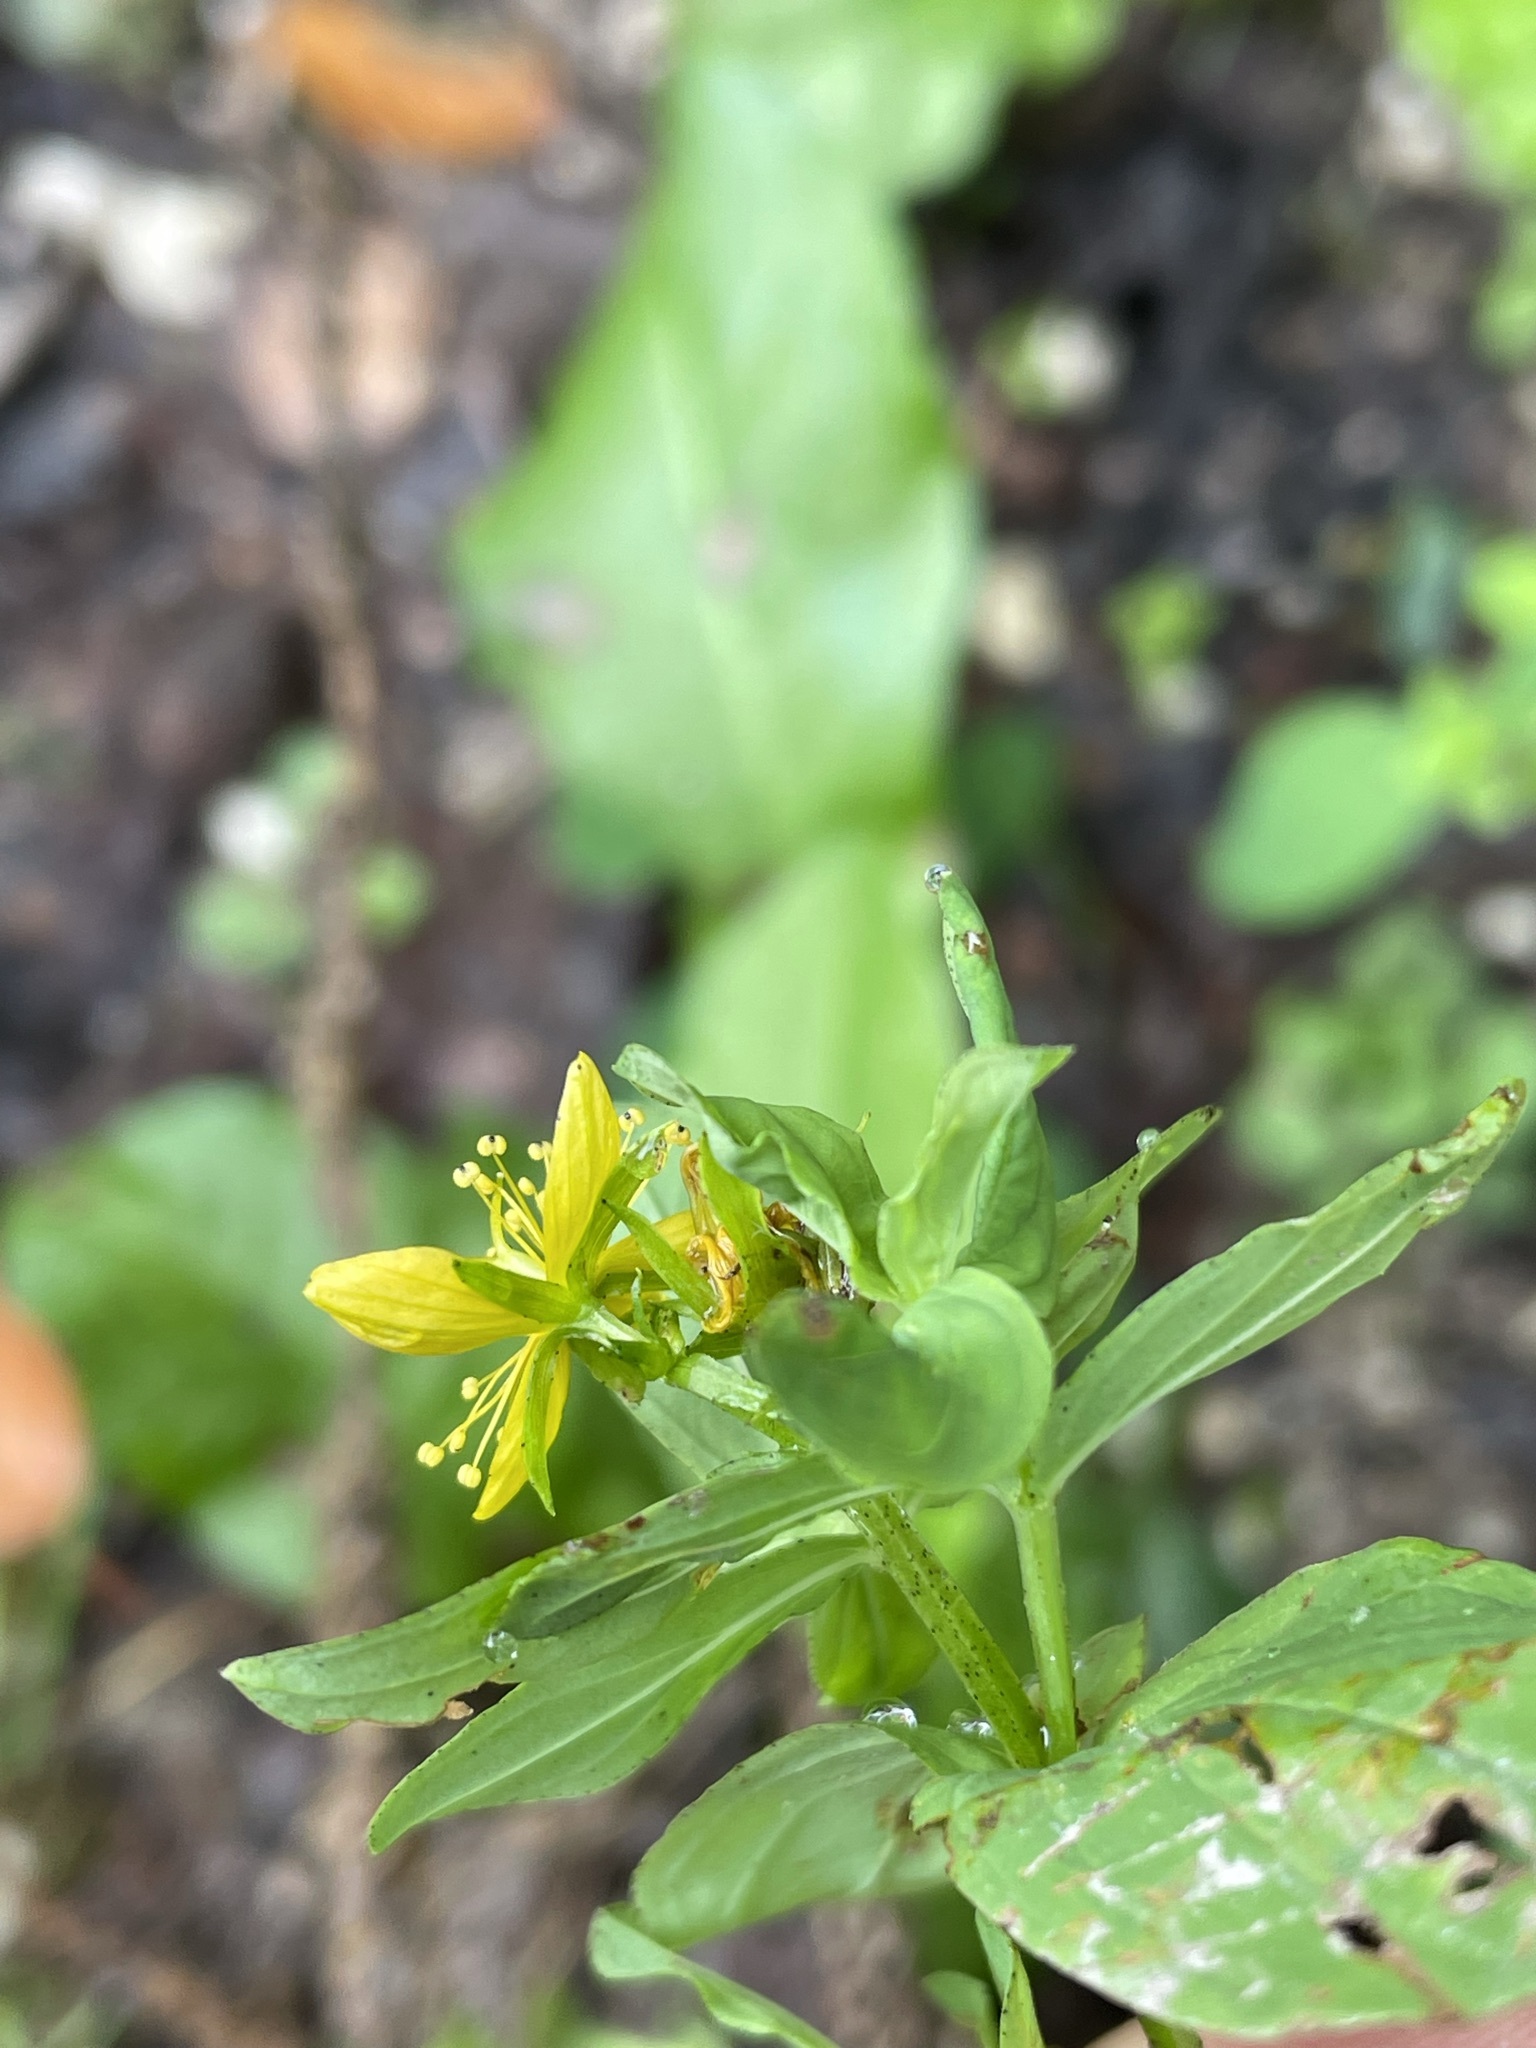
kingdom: Plantae
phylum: Tracheophyta
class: Magnoliopsida
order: Malpighiales
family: Hypericaceae
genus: Hypericum
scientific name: Hypericum tetrapterum
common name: Square-stalked st. john's-wort
